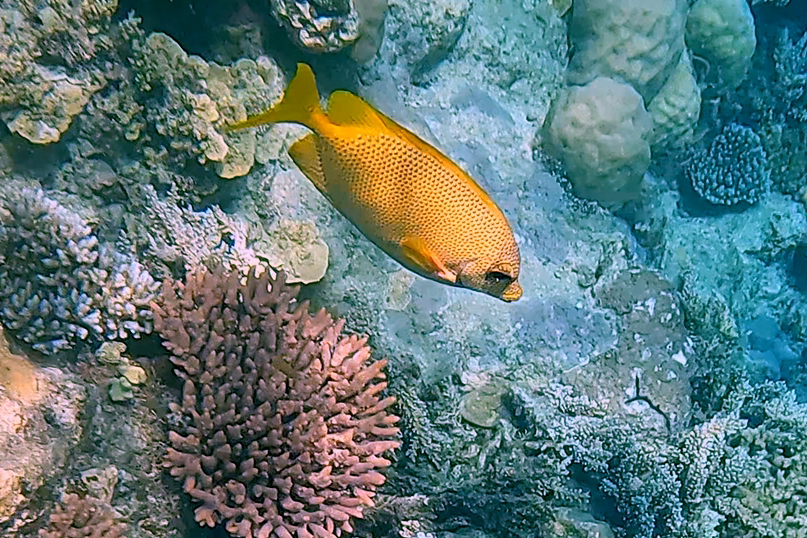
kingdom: Animalia
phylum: Chordata
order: Perciformes
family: Siganidae
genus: Siganus
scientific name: Siganus corallinus
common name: Coral rabbitfish
